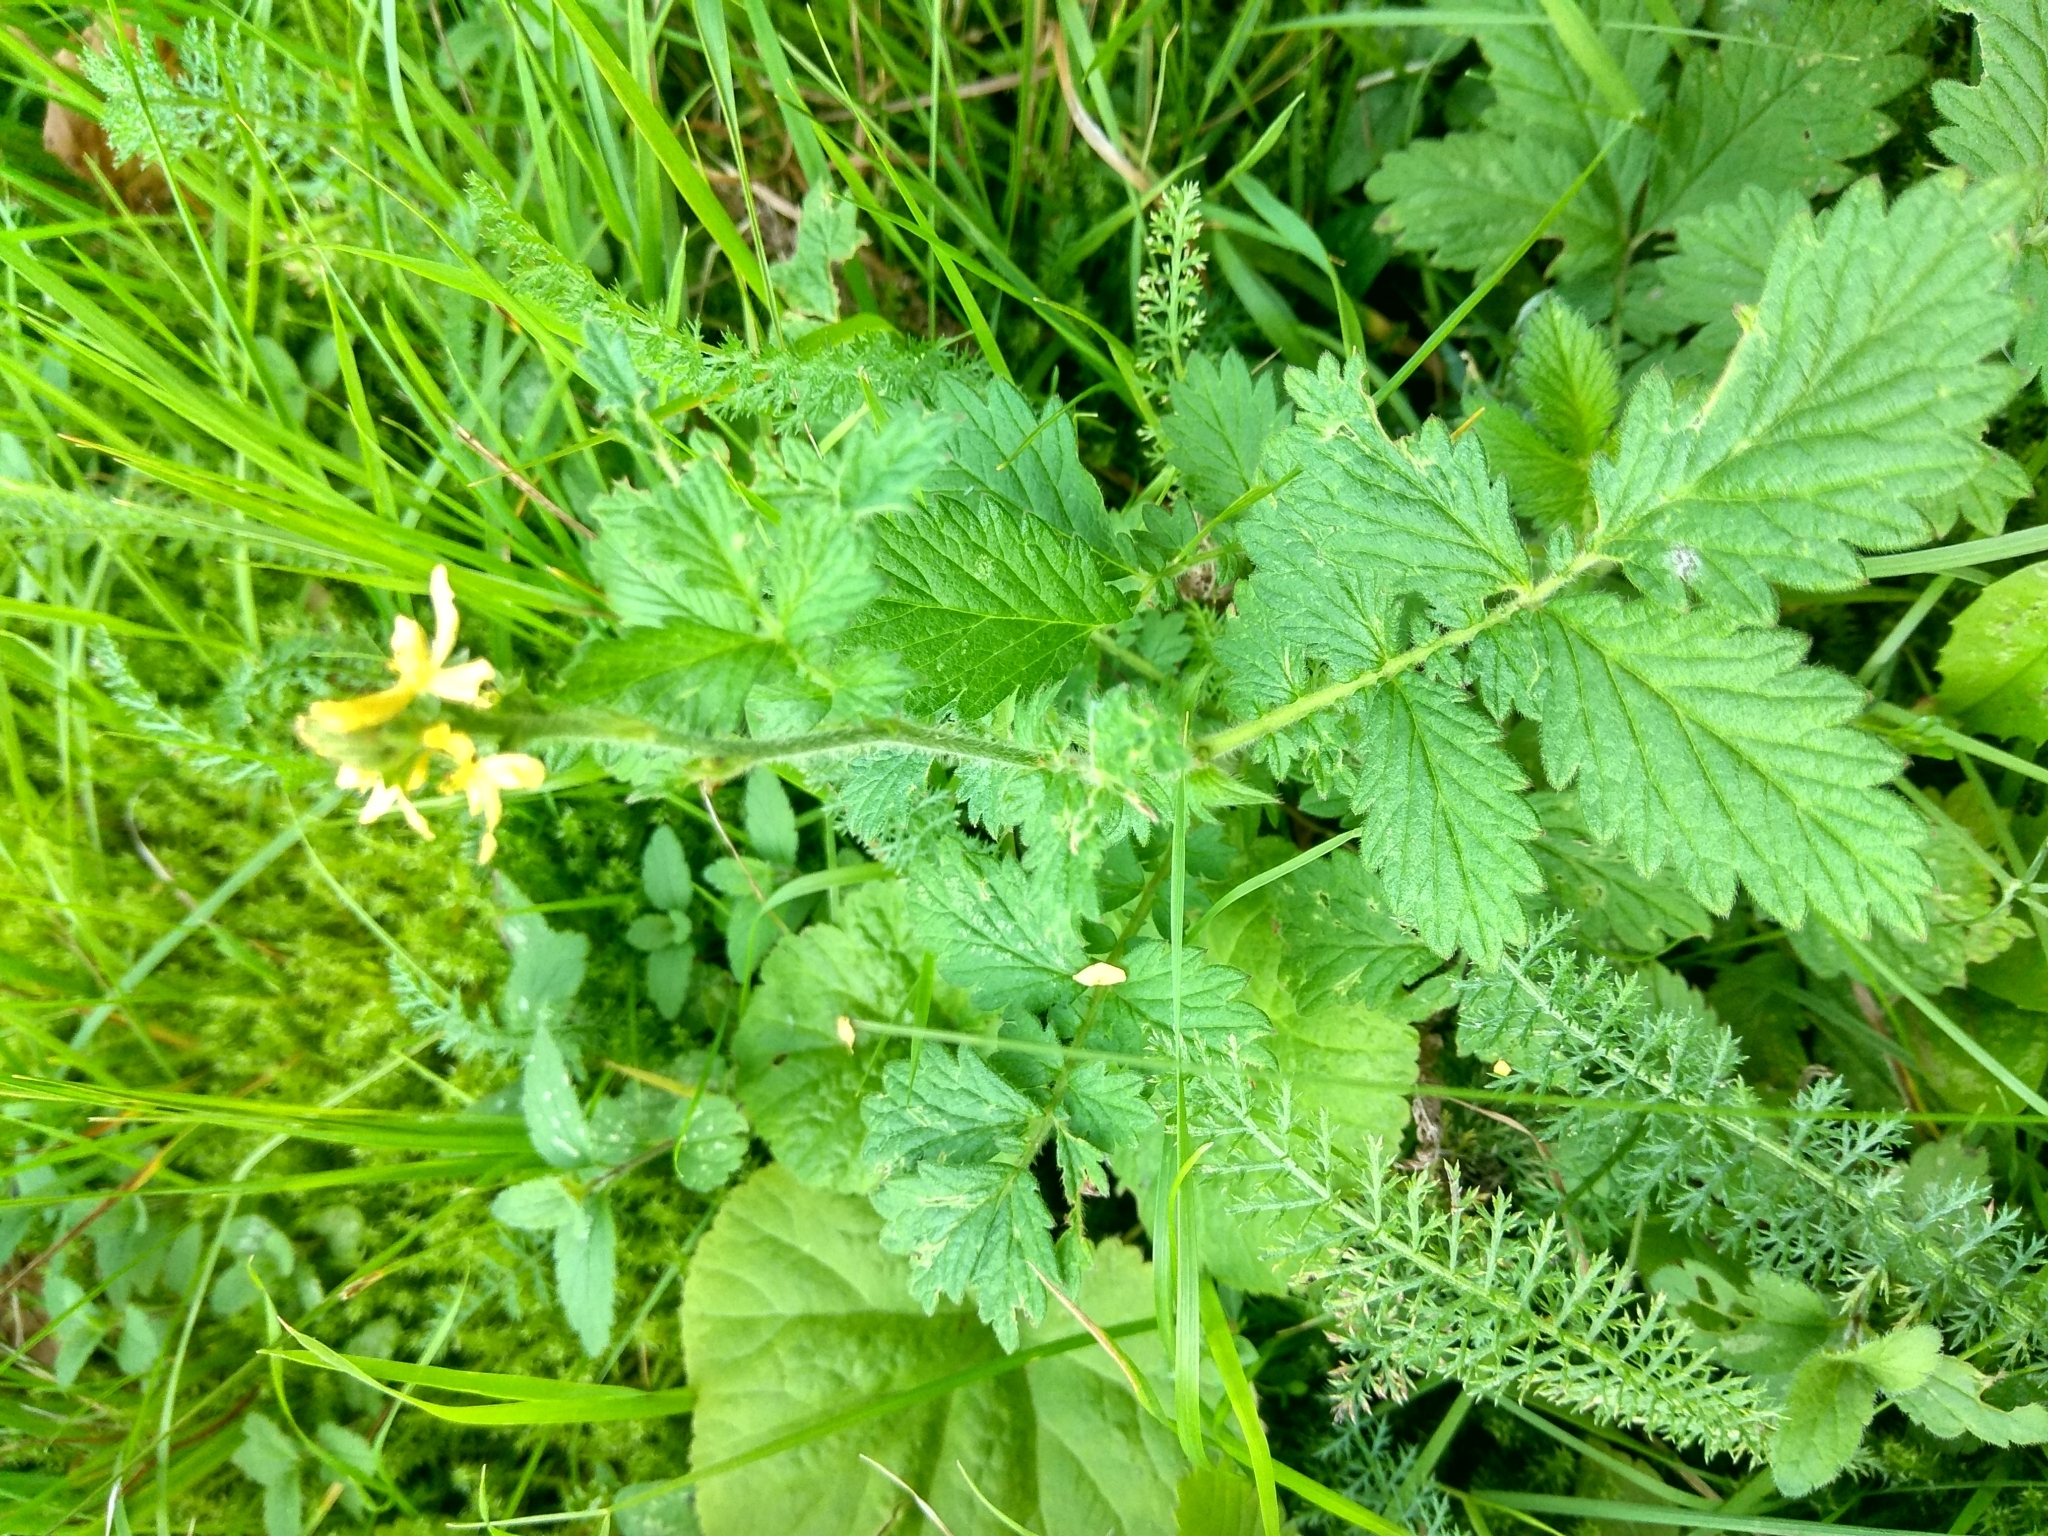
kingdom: Plantae
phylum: Tracheophyta
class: Magnoliopsida
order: Rosales
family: Rosaceae
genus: Agrimonia
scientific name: Agrimonia eupatoria
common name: Agrimony
